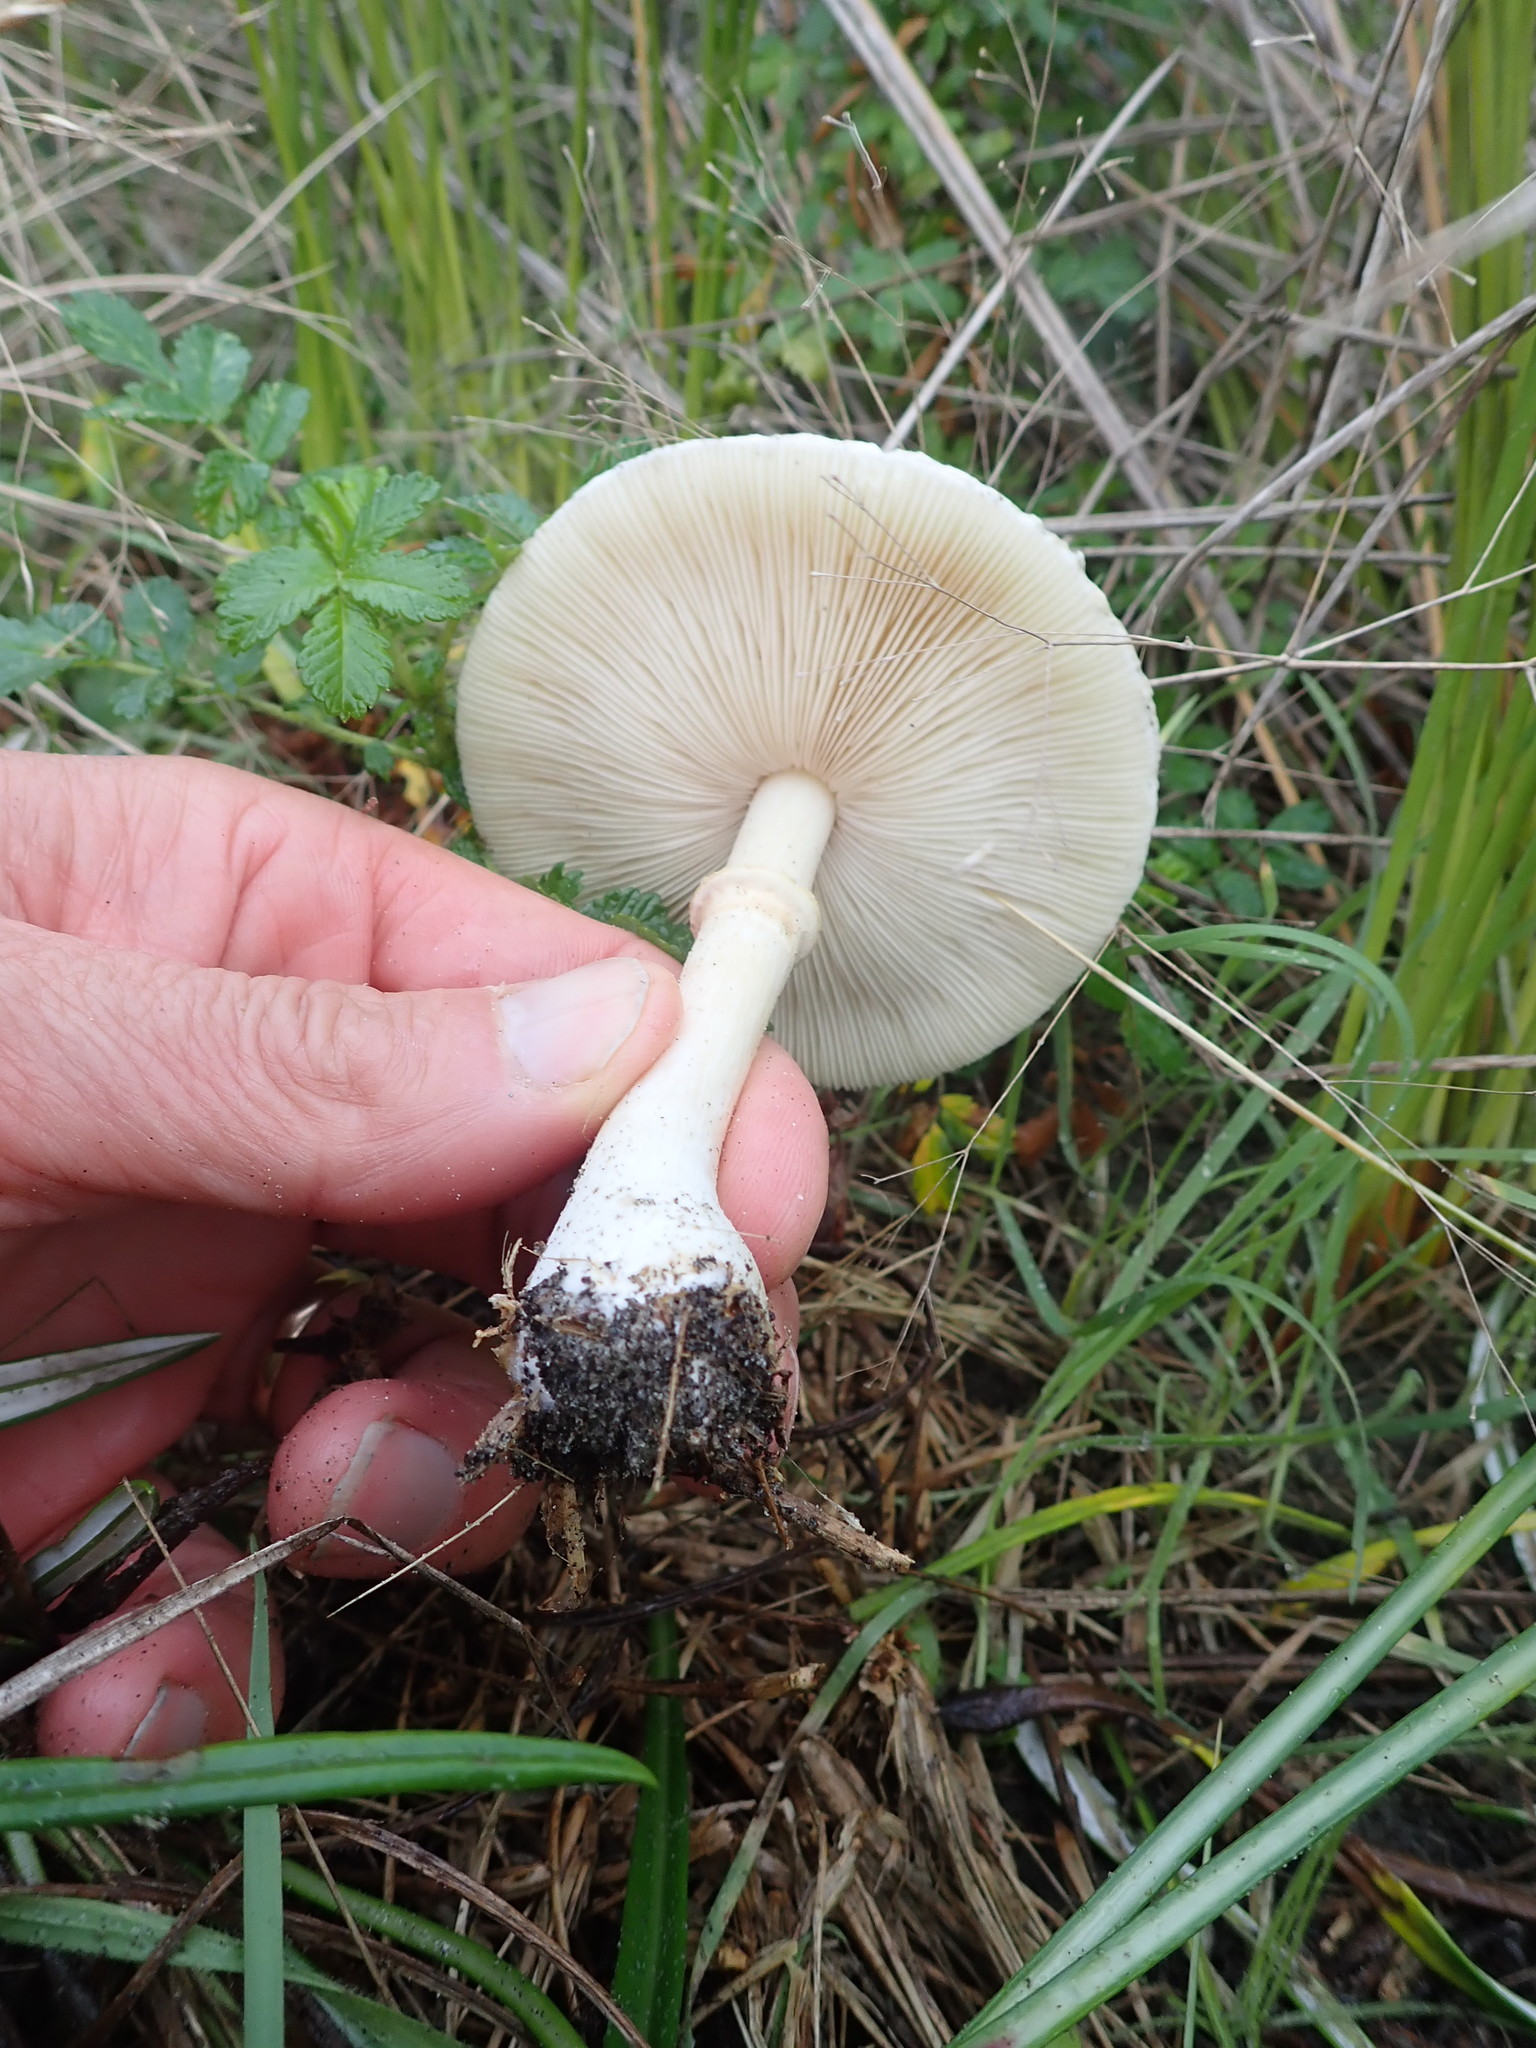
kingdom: Fungi
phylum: Basidiomycota
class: Agaricomycetes
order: Agaricales
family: Agaricaceae
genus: Leucoagaricus
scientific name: Leucoagaricus leucothites
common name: White dapperling
